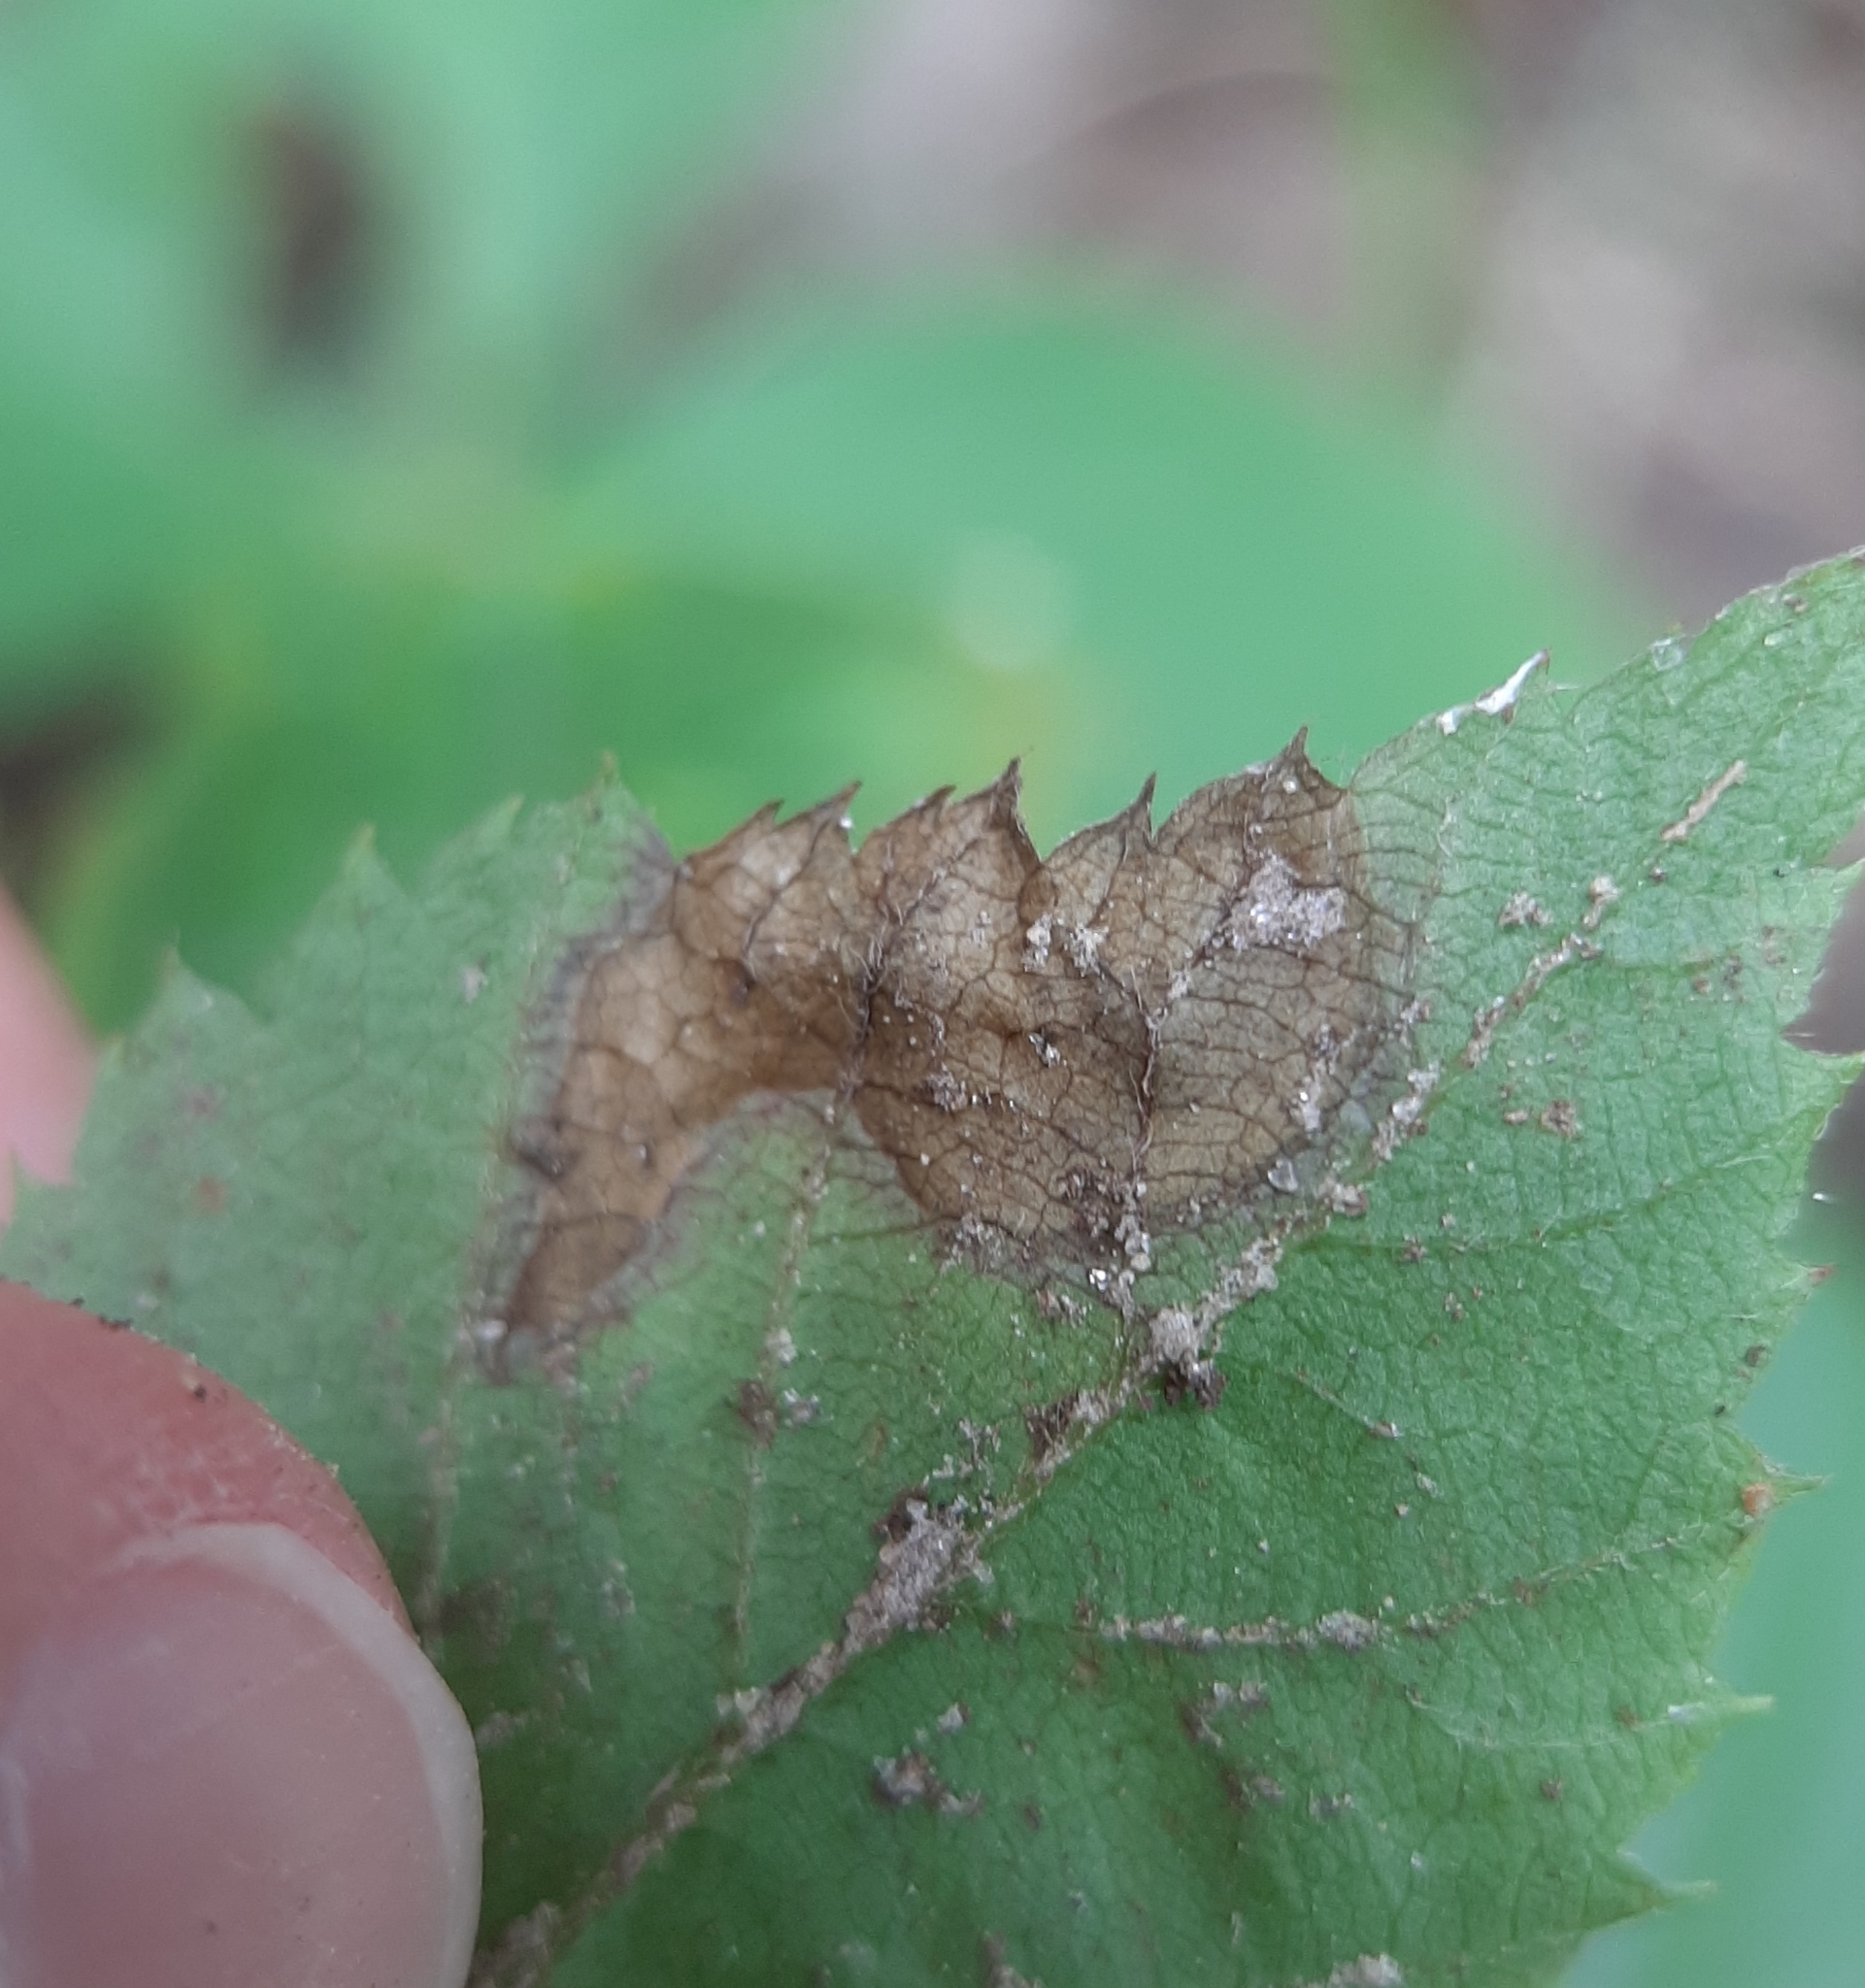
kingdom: Animalia
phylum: Arthropoda
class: Insecta
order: Hymenoptera
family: Tenthredinidae
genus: Metallus
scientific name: Metallus rohweri
